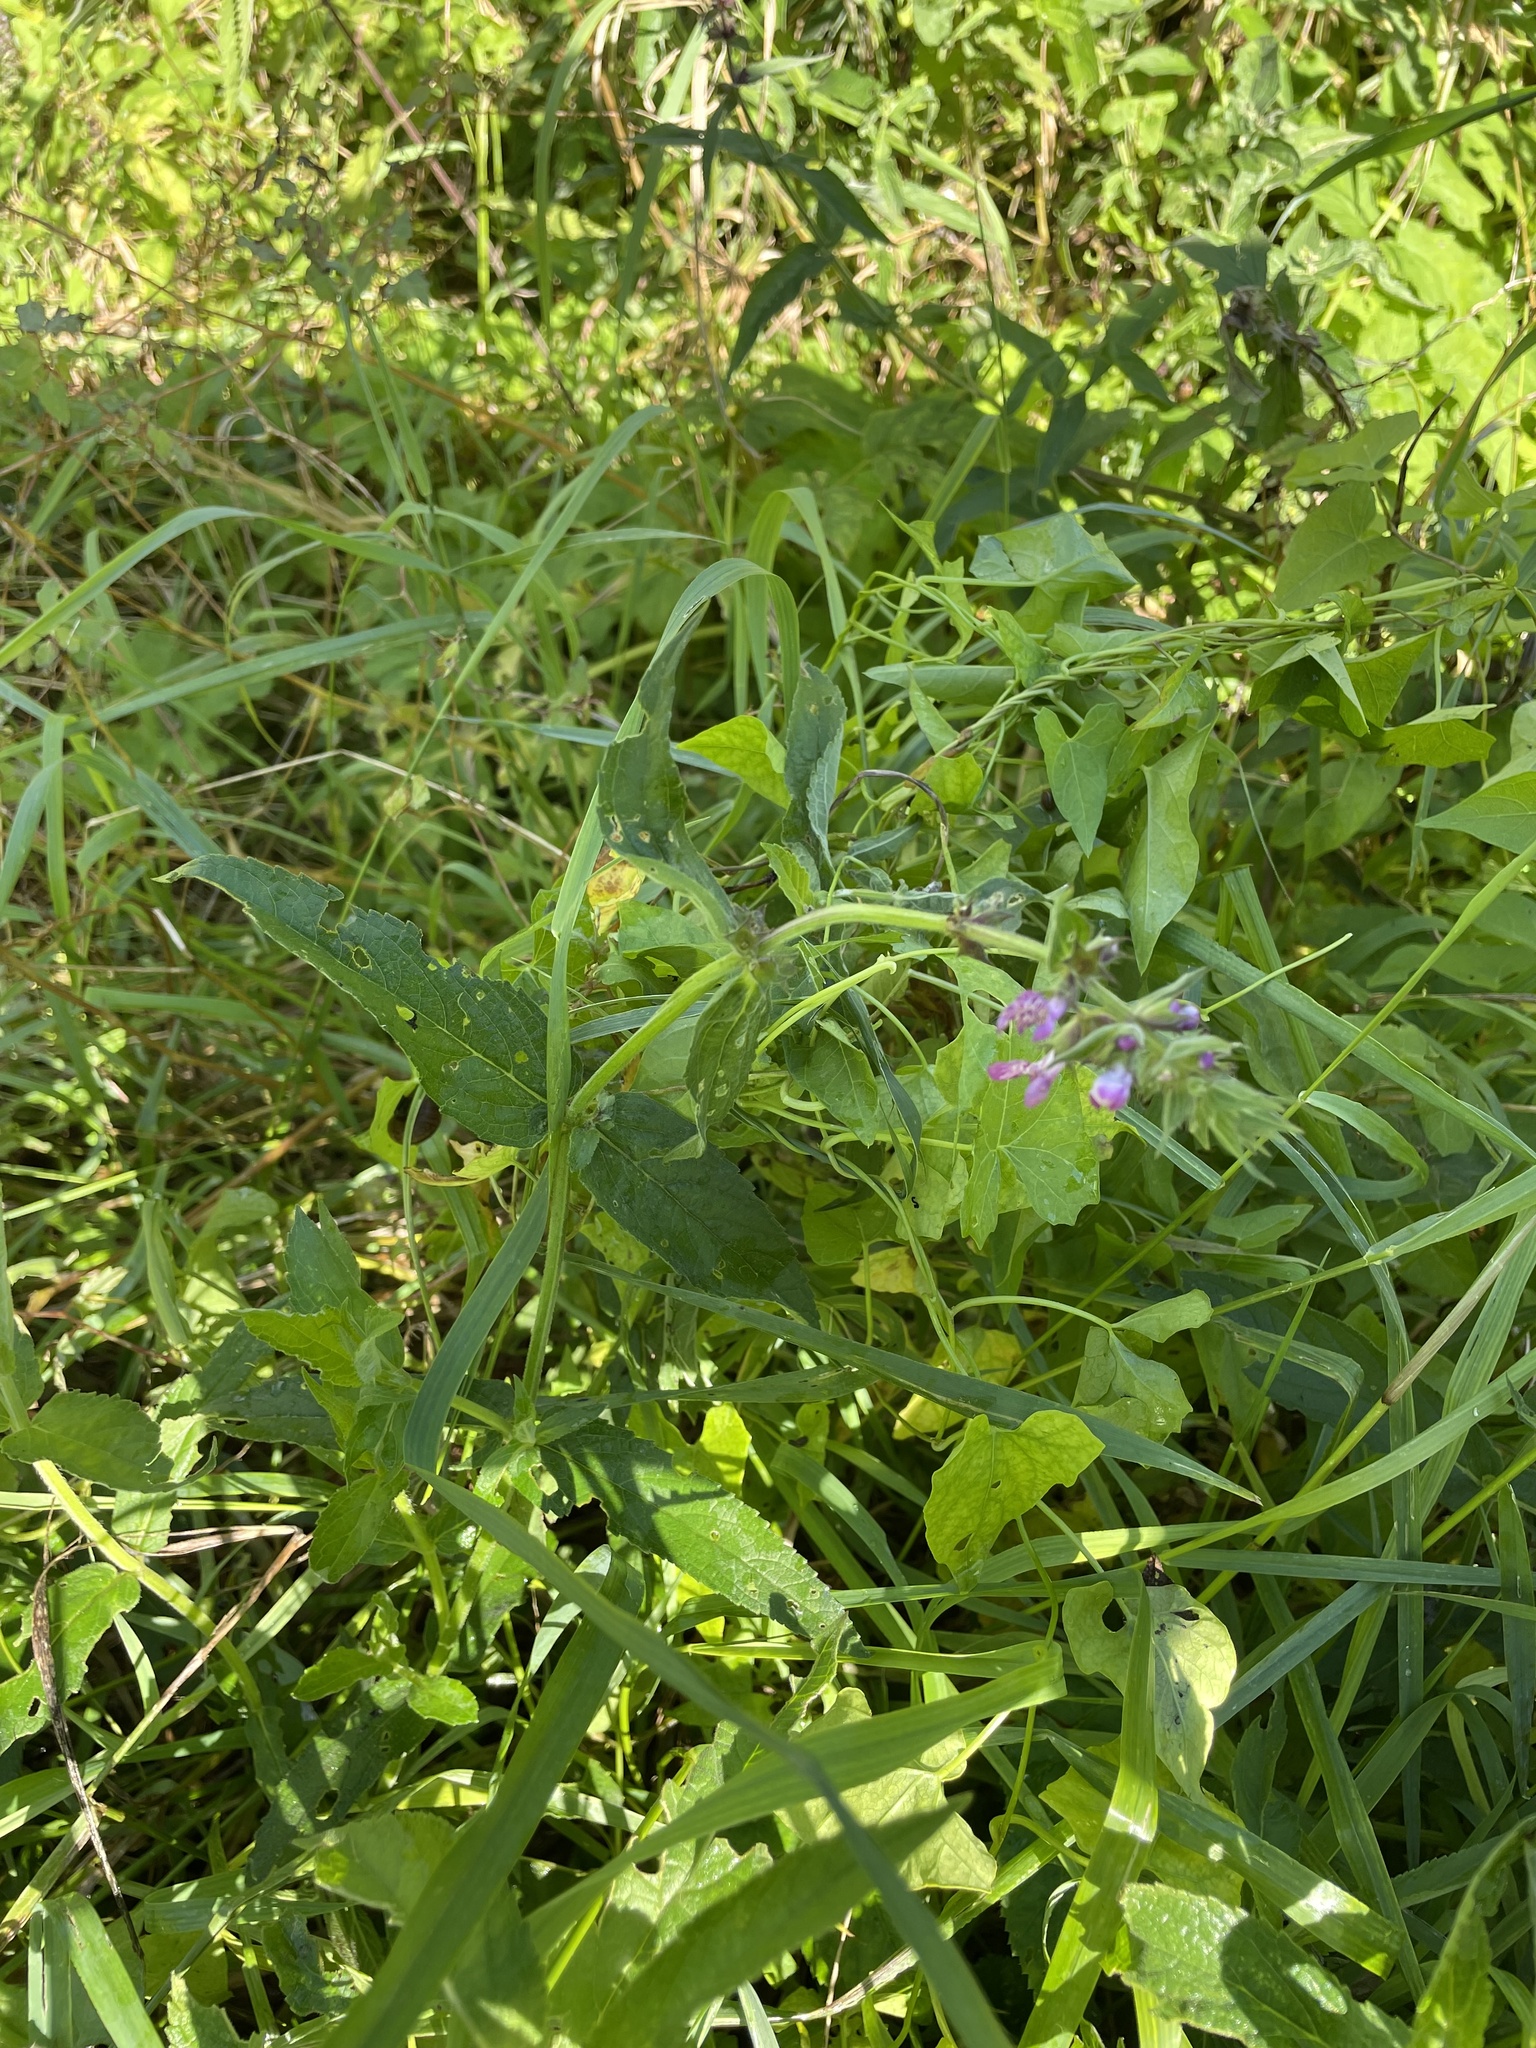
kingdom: Plantae
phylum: Tracheophyta
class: Magnoliopsida
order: Lamiales
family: Lamiaceae
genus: Stachys
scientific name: Stachys palustris
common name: Marsh woundwort
